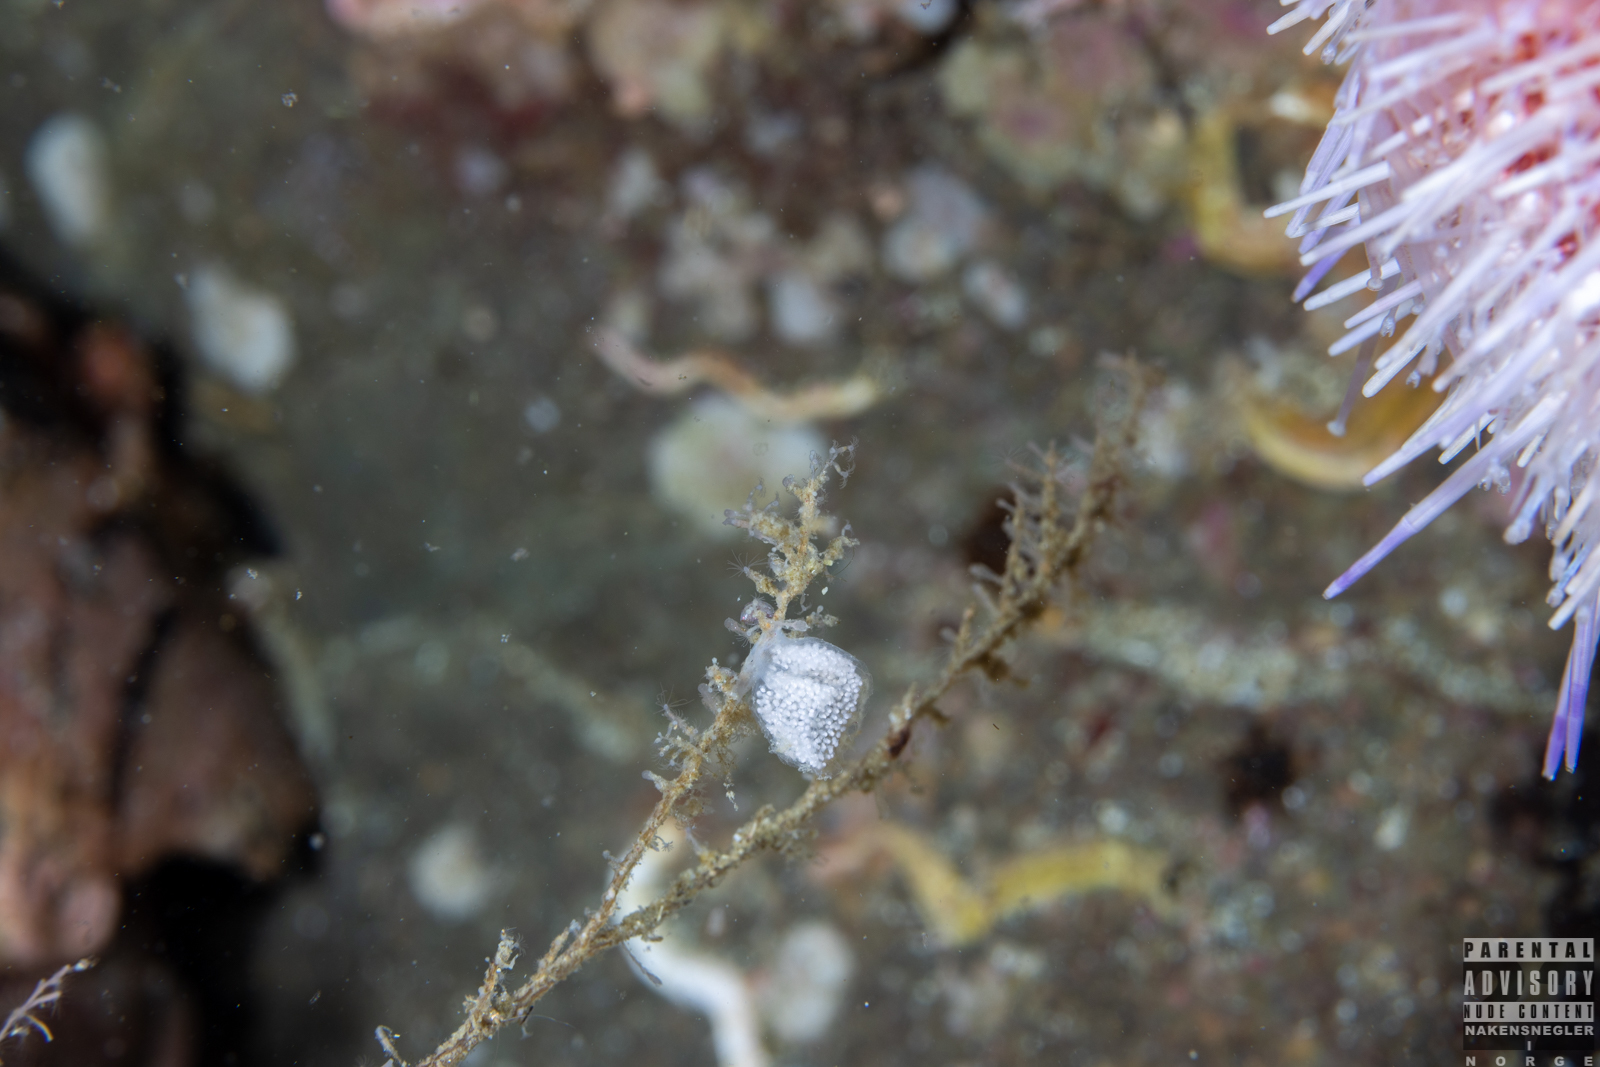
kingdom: Animalia
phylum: Mollusca
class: Gastropoda
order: Nudibranchia
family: Eubranchidae
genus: Eubranchus
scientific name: Eubranchus tricolor
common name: Painted balloon aeolis
